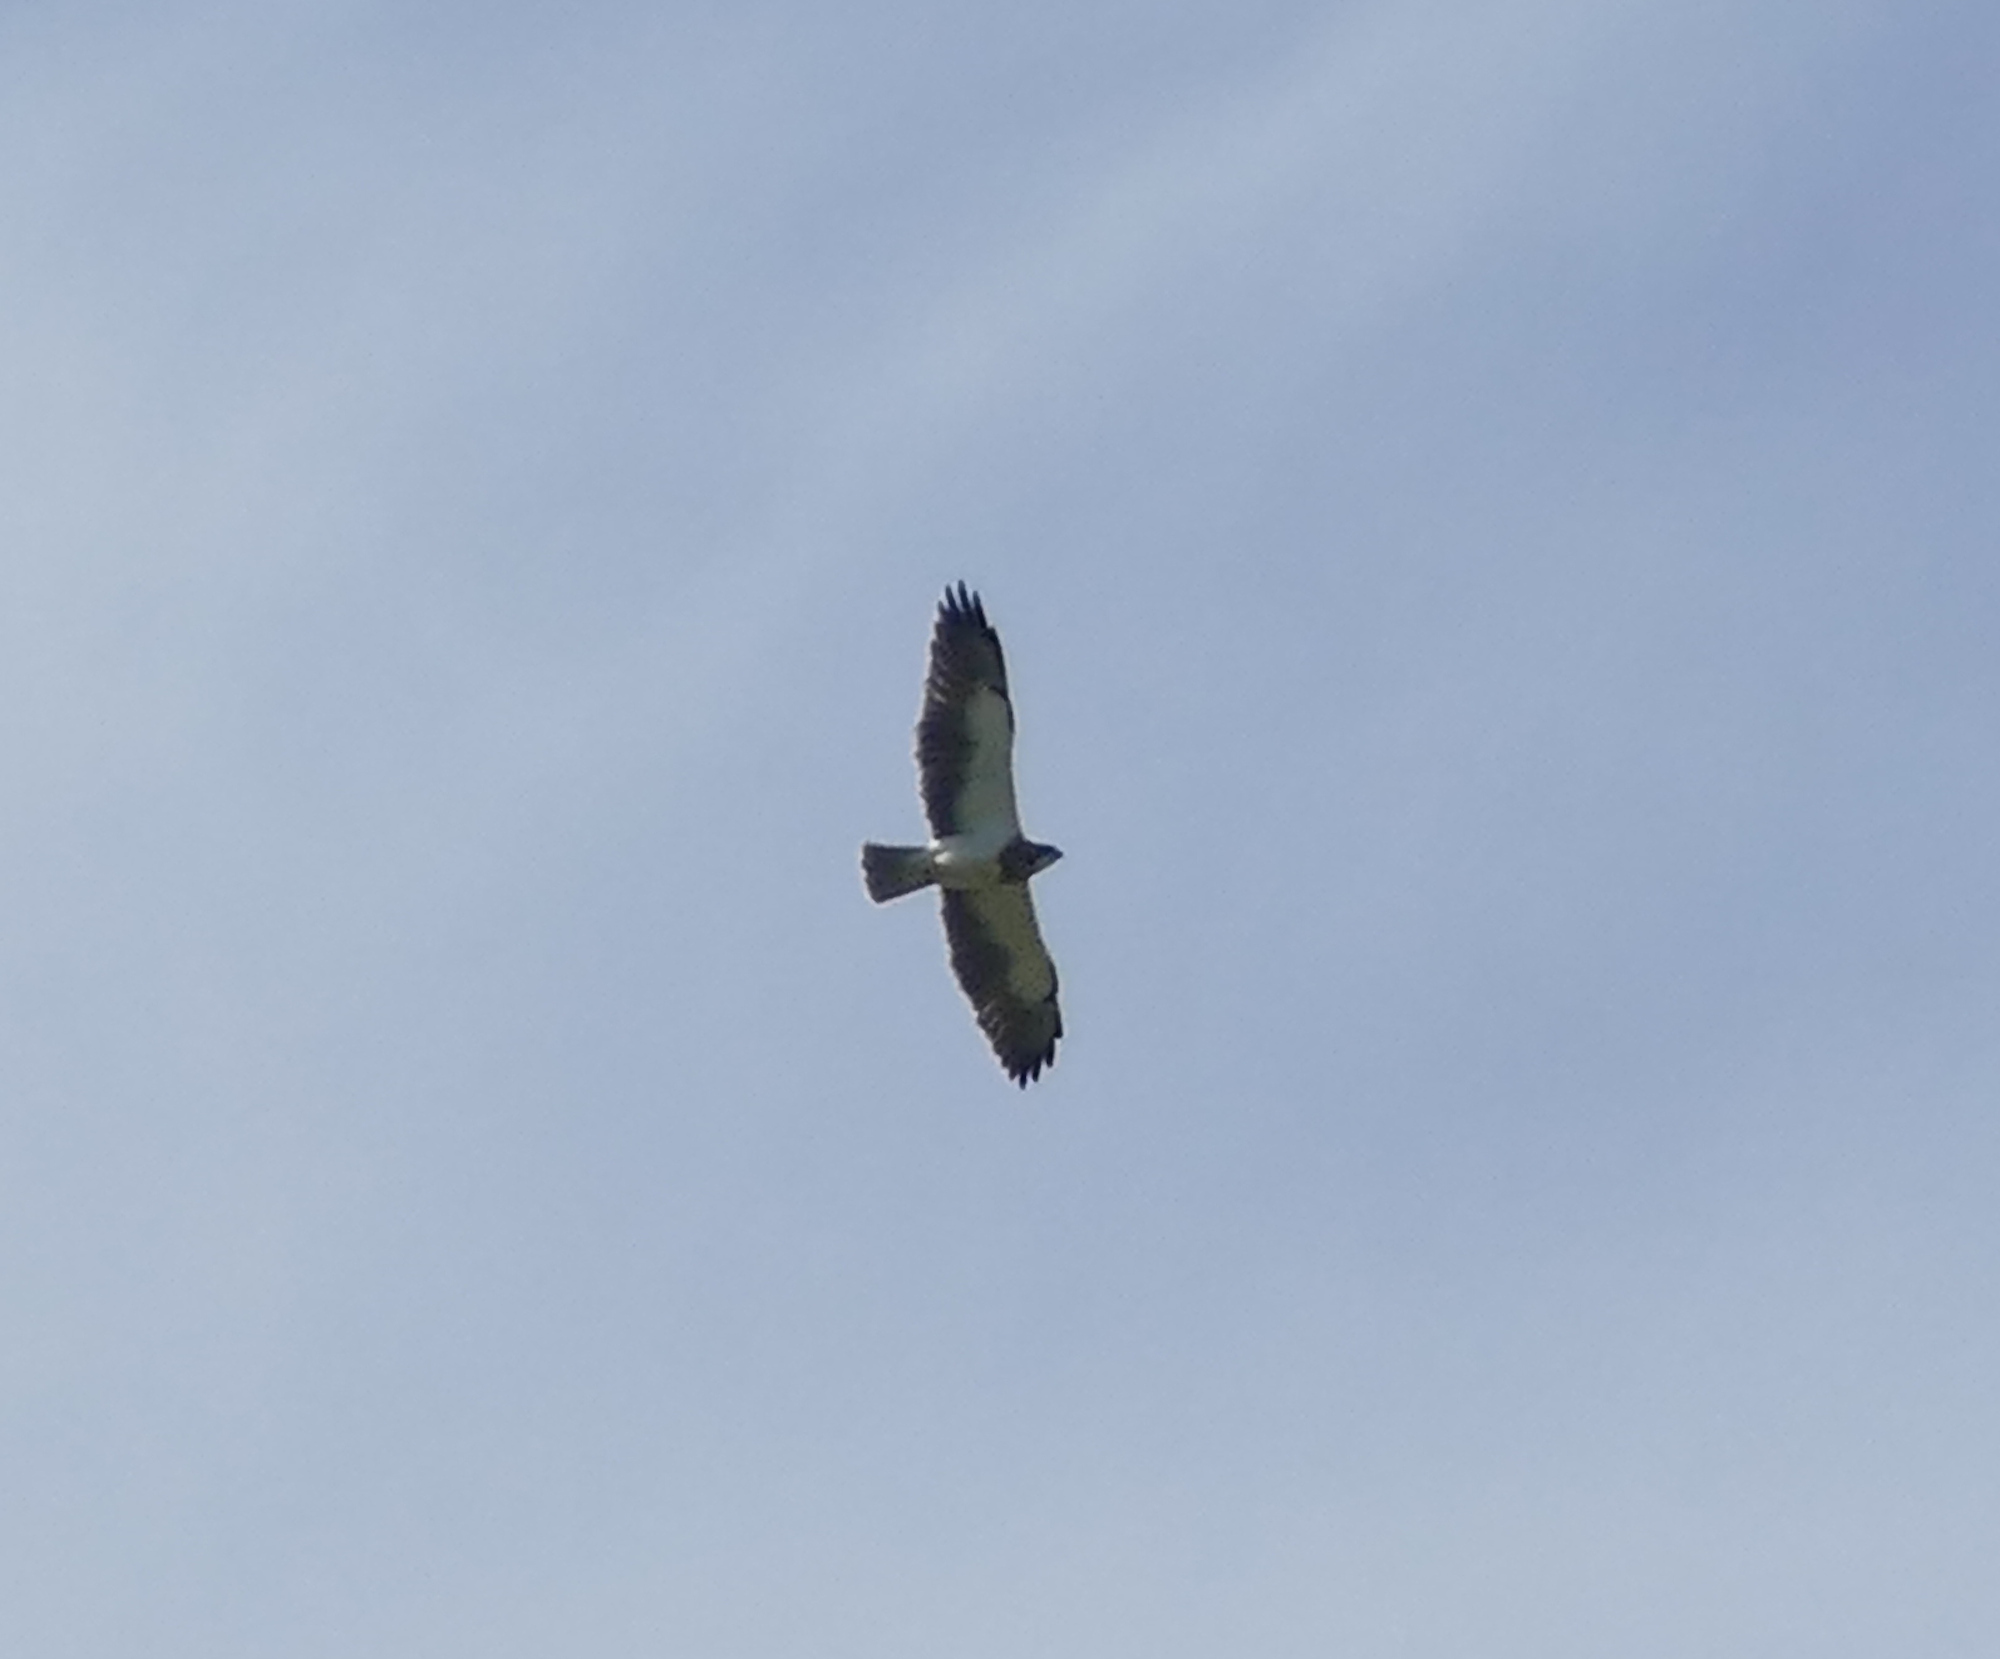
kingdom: Animalia
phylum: Chordata
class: Aves
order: Accipitriformes
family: Accipitridae
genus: Buteo
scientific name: Buteo swainsoni
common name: Swainson's hawk
